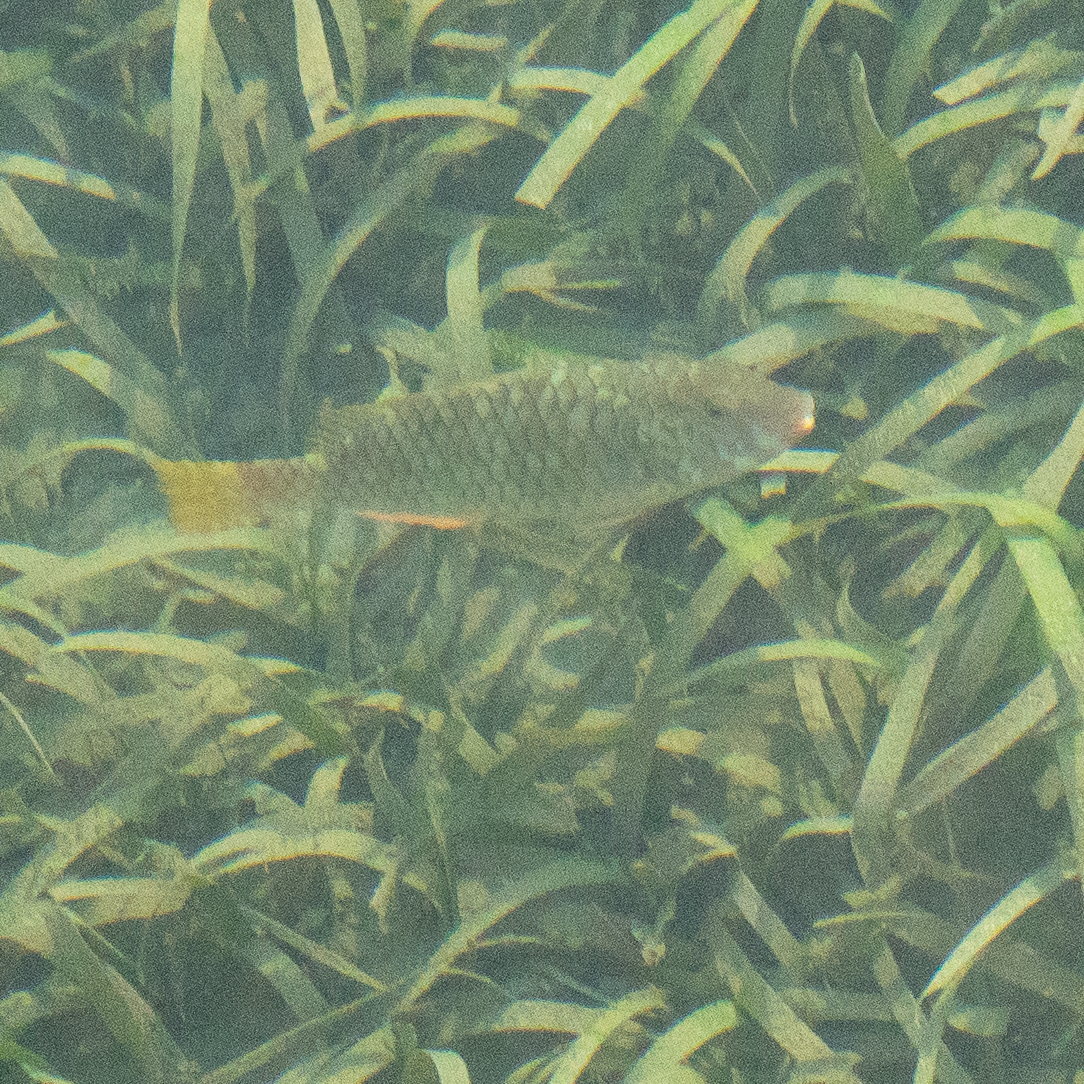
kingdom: Animalia
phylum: Chordata
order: Perciformes
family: Scaridae
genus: Sparisoma
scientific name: Sparisoma rubripinne
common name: Redfin parrotfish
